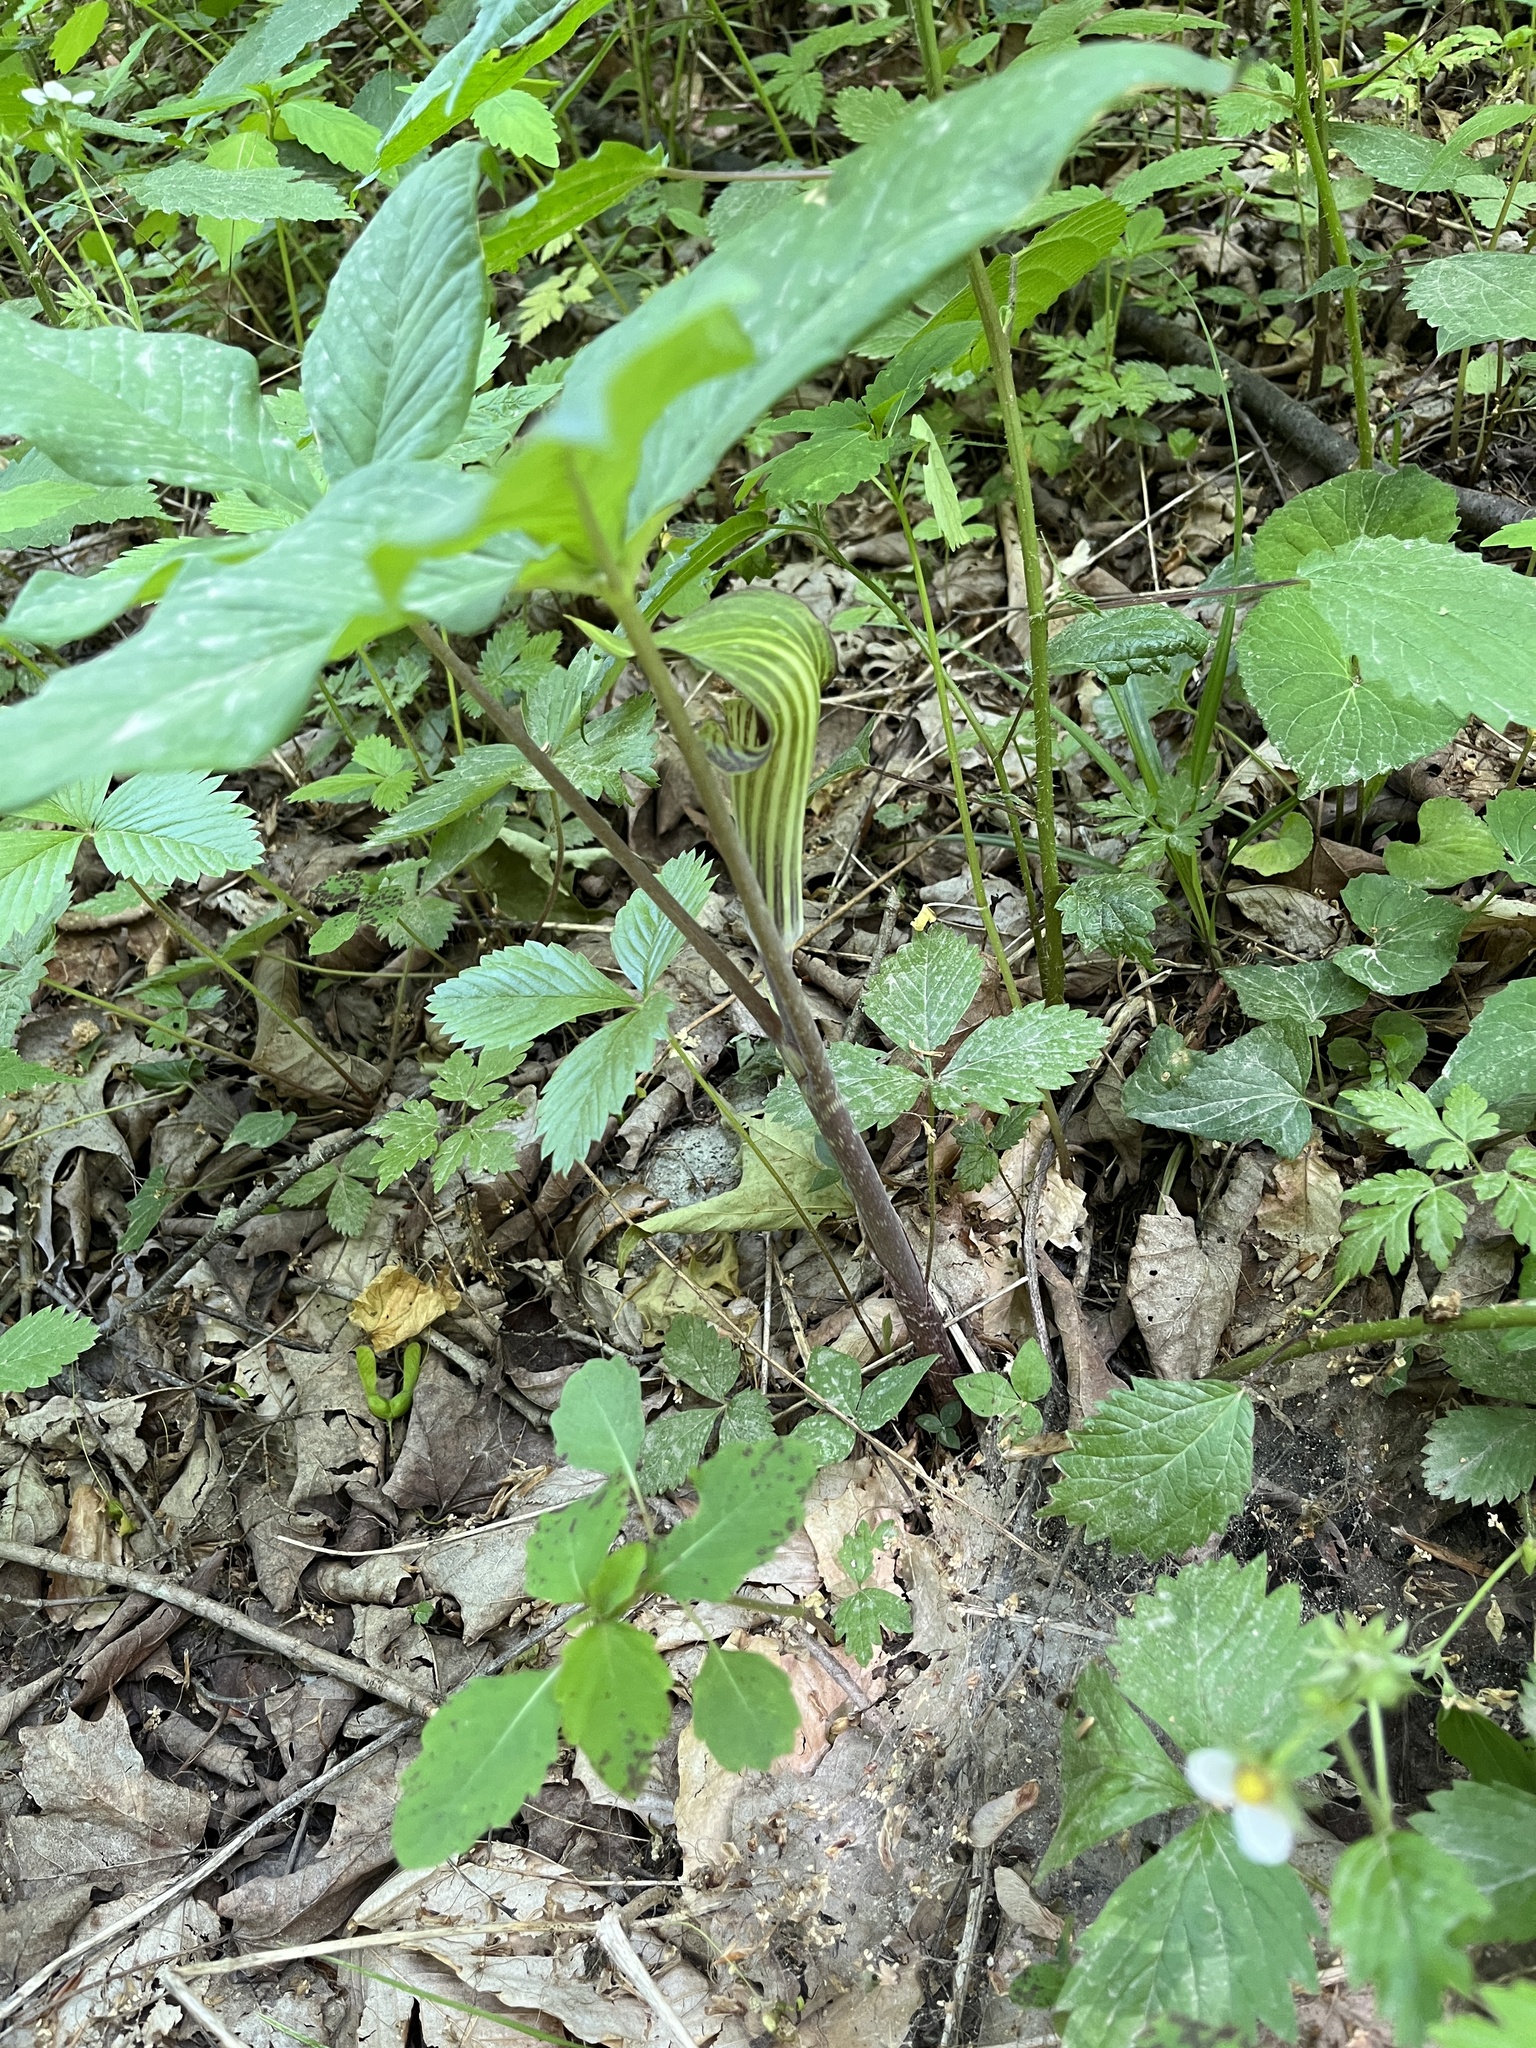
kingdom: Plantae
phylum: Tracheophyta
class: Liliopsida
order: Alismatales
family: Araceae
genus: Arisaema
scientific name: Arisaema triphyllum
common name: Jack-in-the-pulpit
